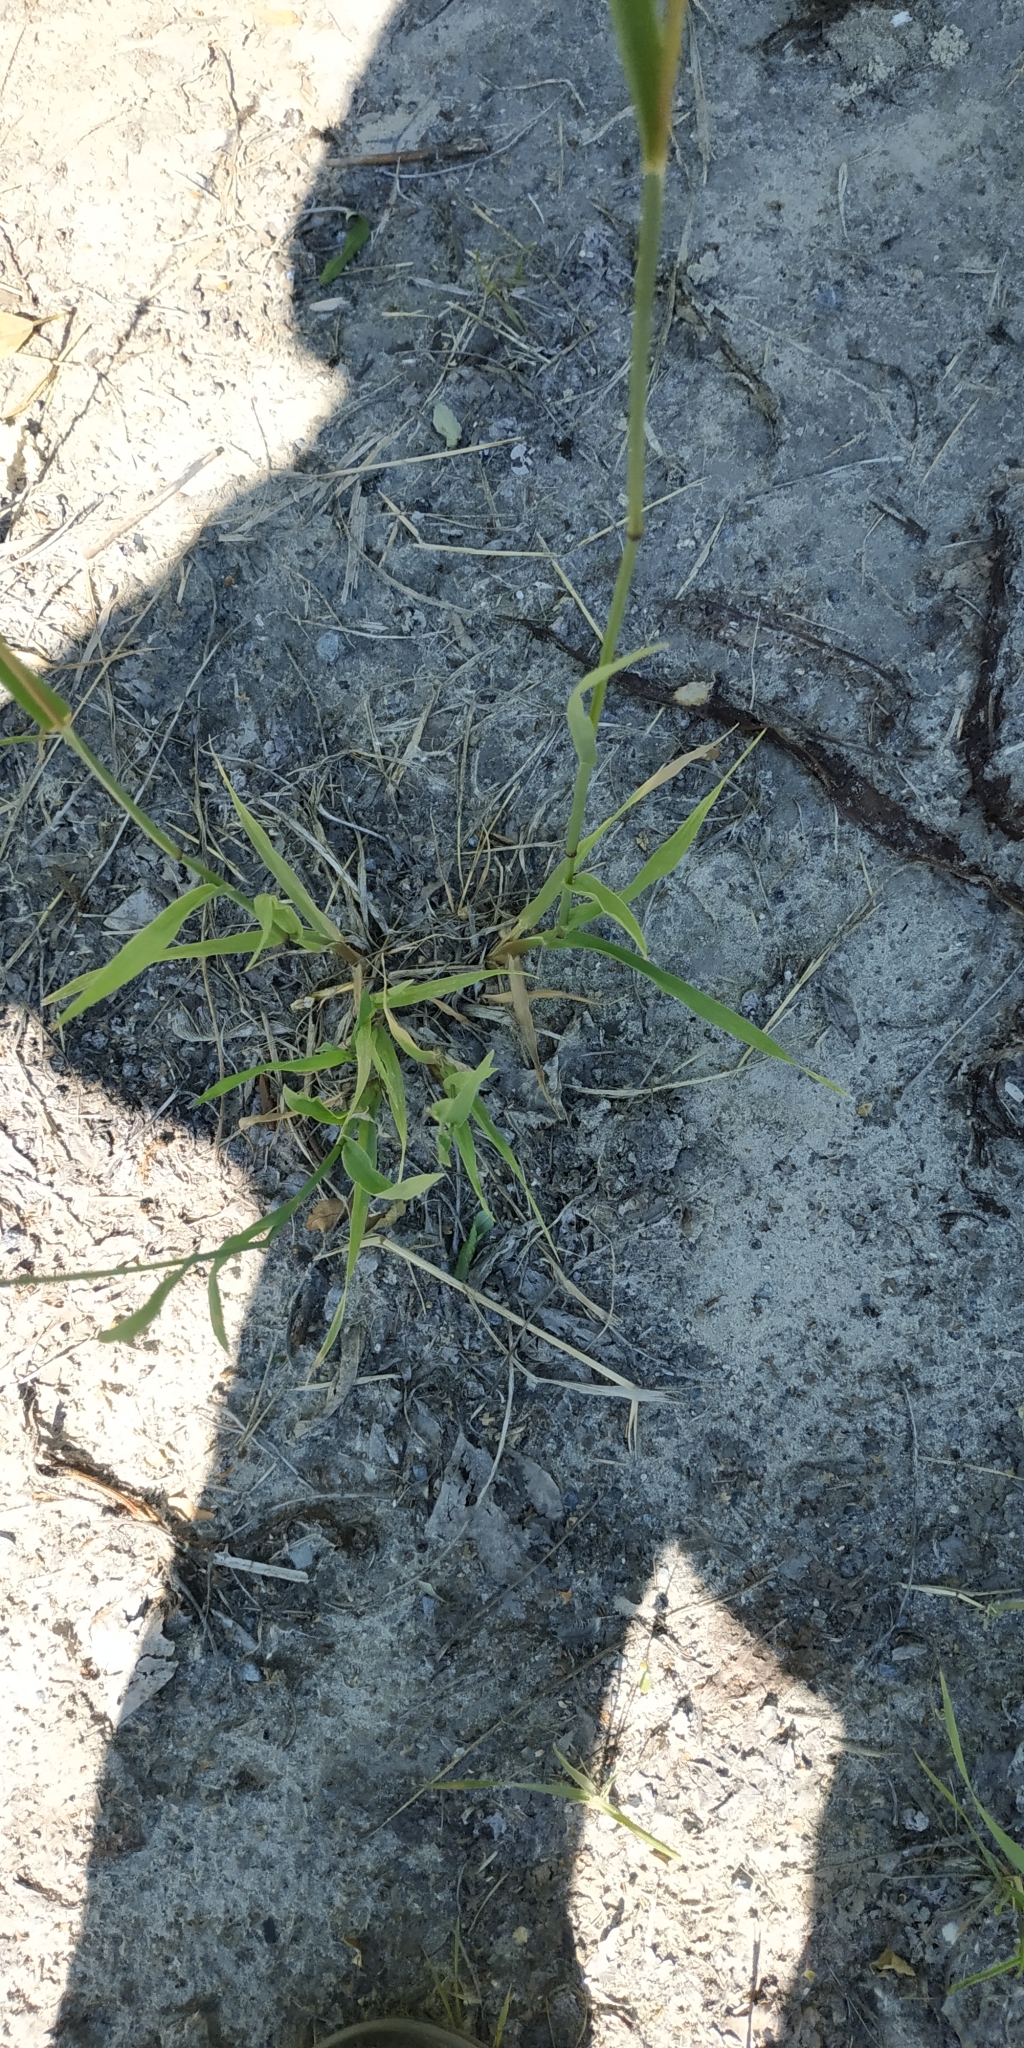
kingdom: Plantae
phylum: Tracheophyta
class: Liliopsida
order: Poales
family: Poaceae
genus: Phleum
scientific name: Phleum pratense
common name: Timothy grass
